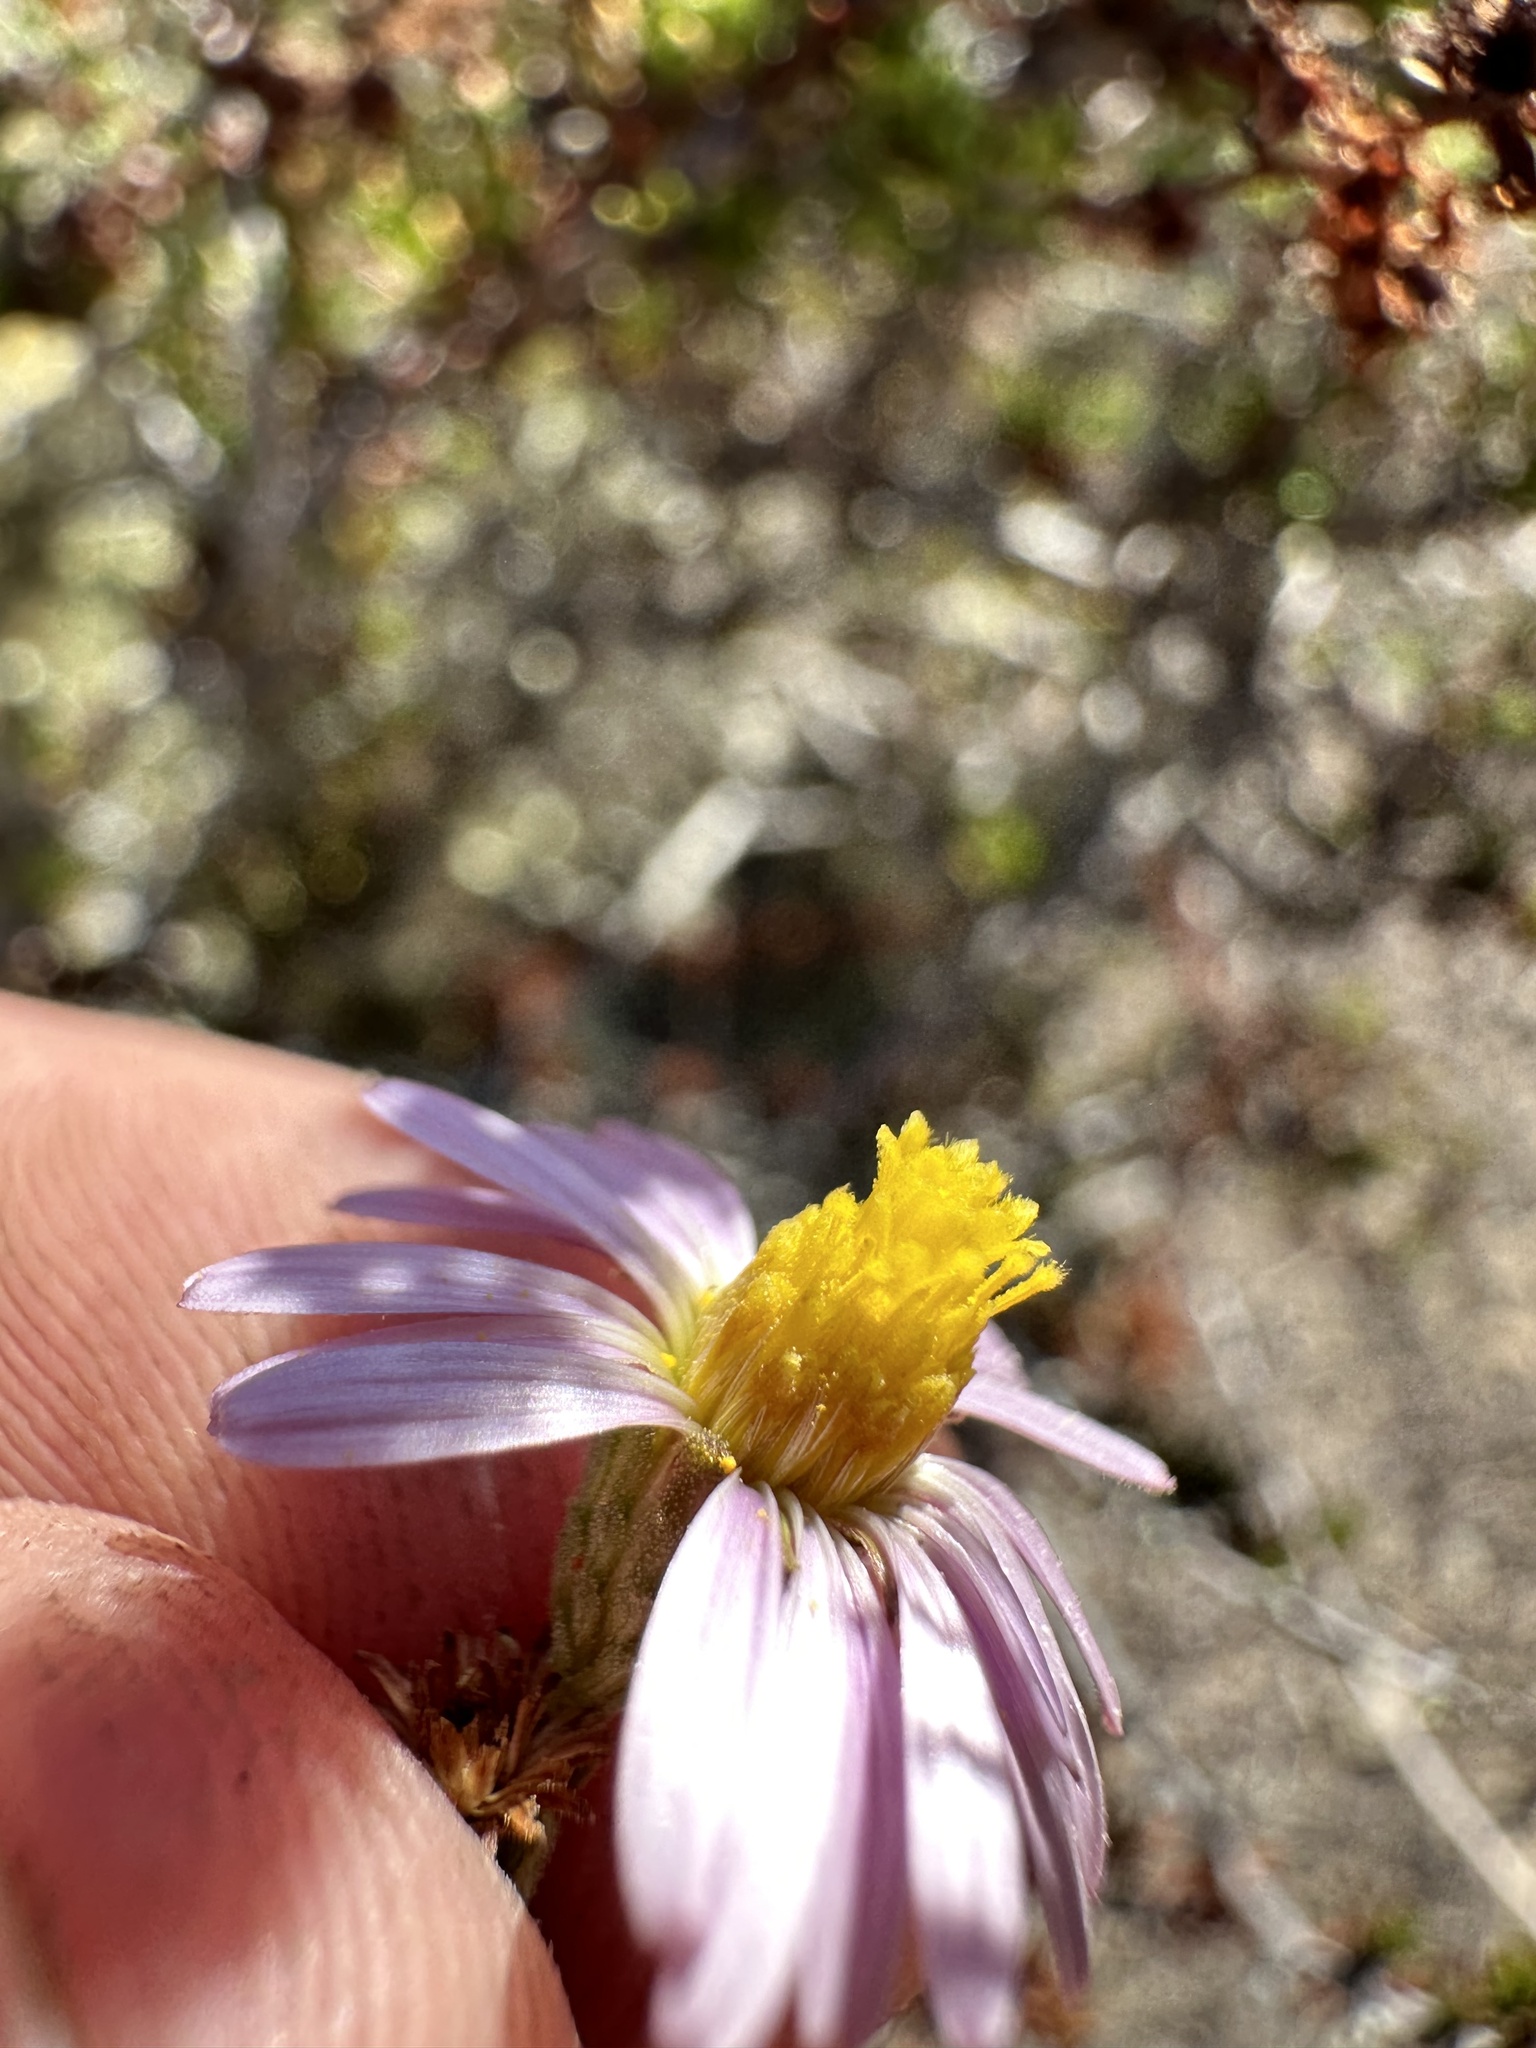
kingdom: Plantae
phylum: Tracheophyta
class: Magnoliopsida
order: Asterales
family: Asteraceae
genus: Corethrogyne
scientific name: Corethrogyne filaginifolia
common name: Sand-aster
